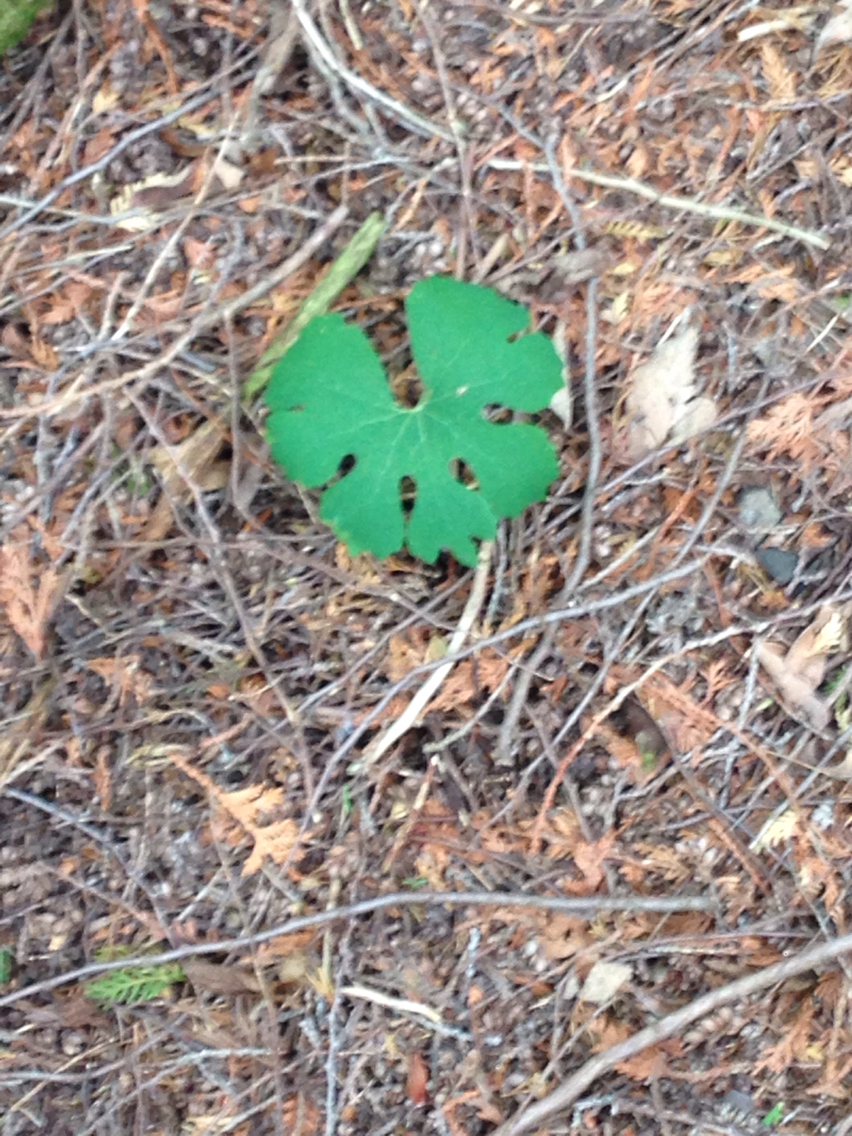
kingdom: Plantae
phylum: Tracheophyta
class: Magnoliopsida
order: Ranunculales
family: Papaveraceae
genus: Sanguinaria
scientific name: Sanguinaria canadensis
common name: Bloodroot
